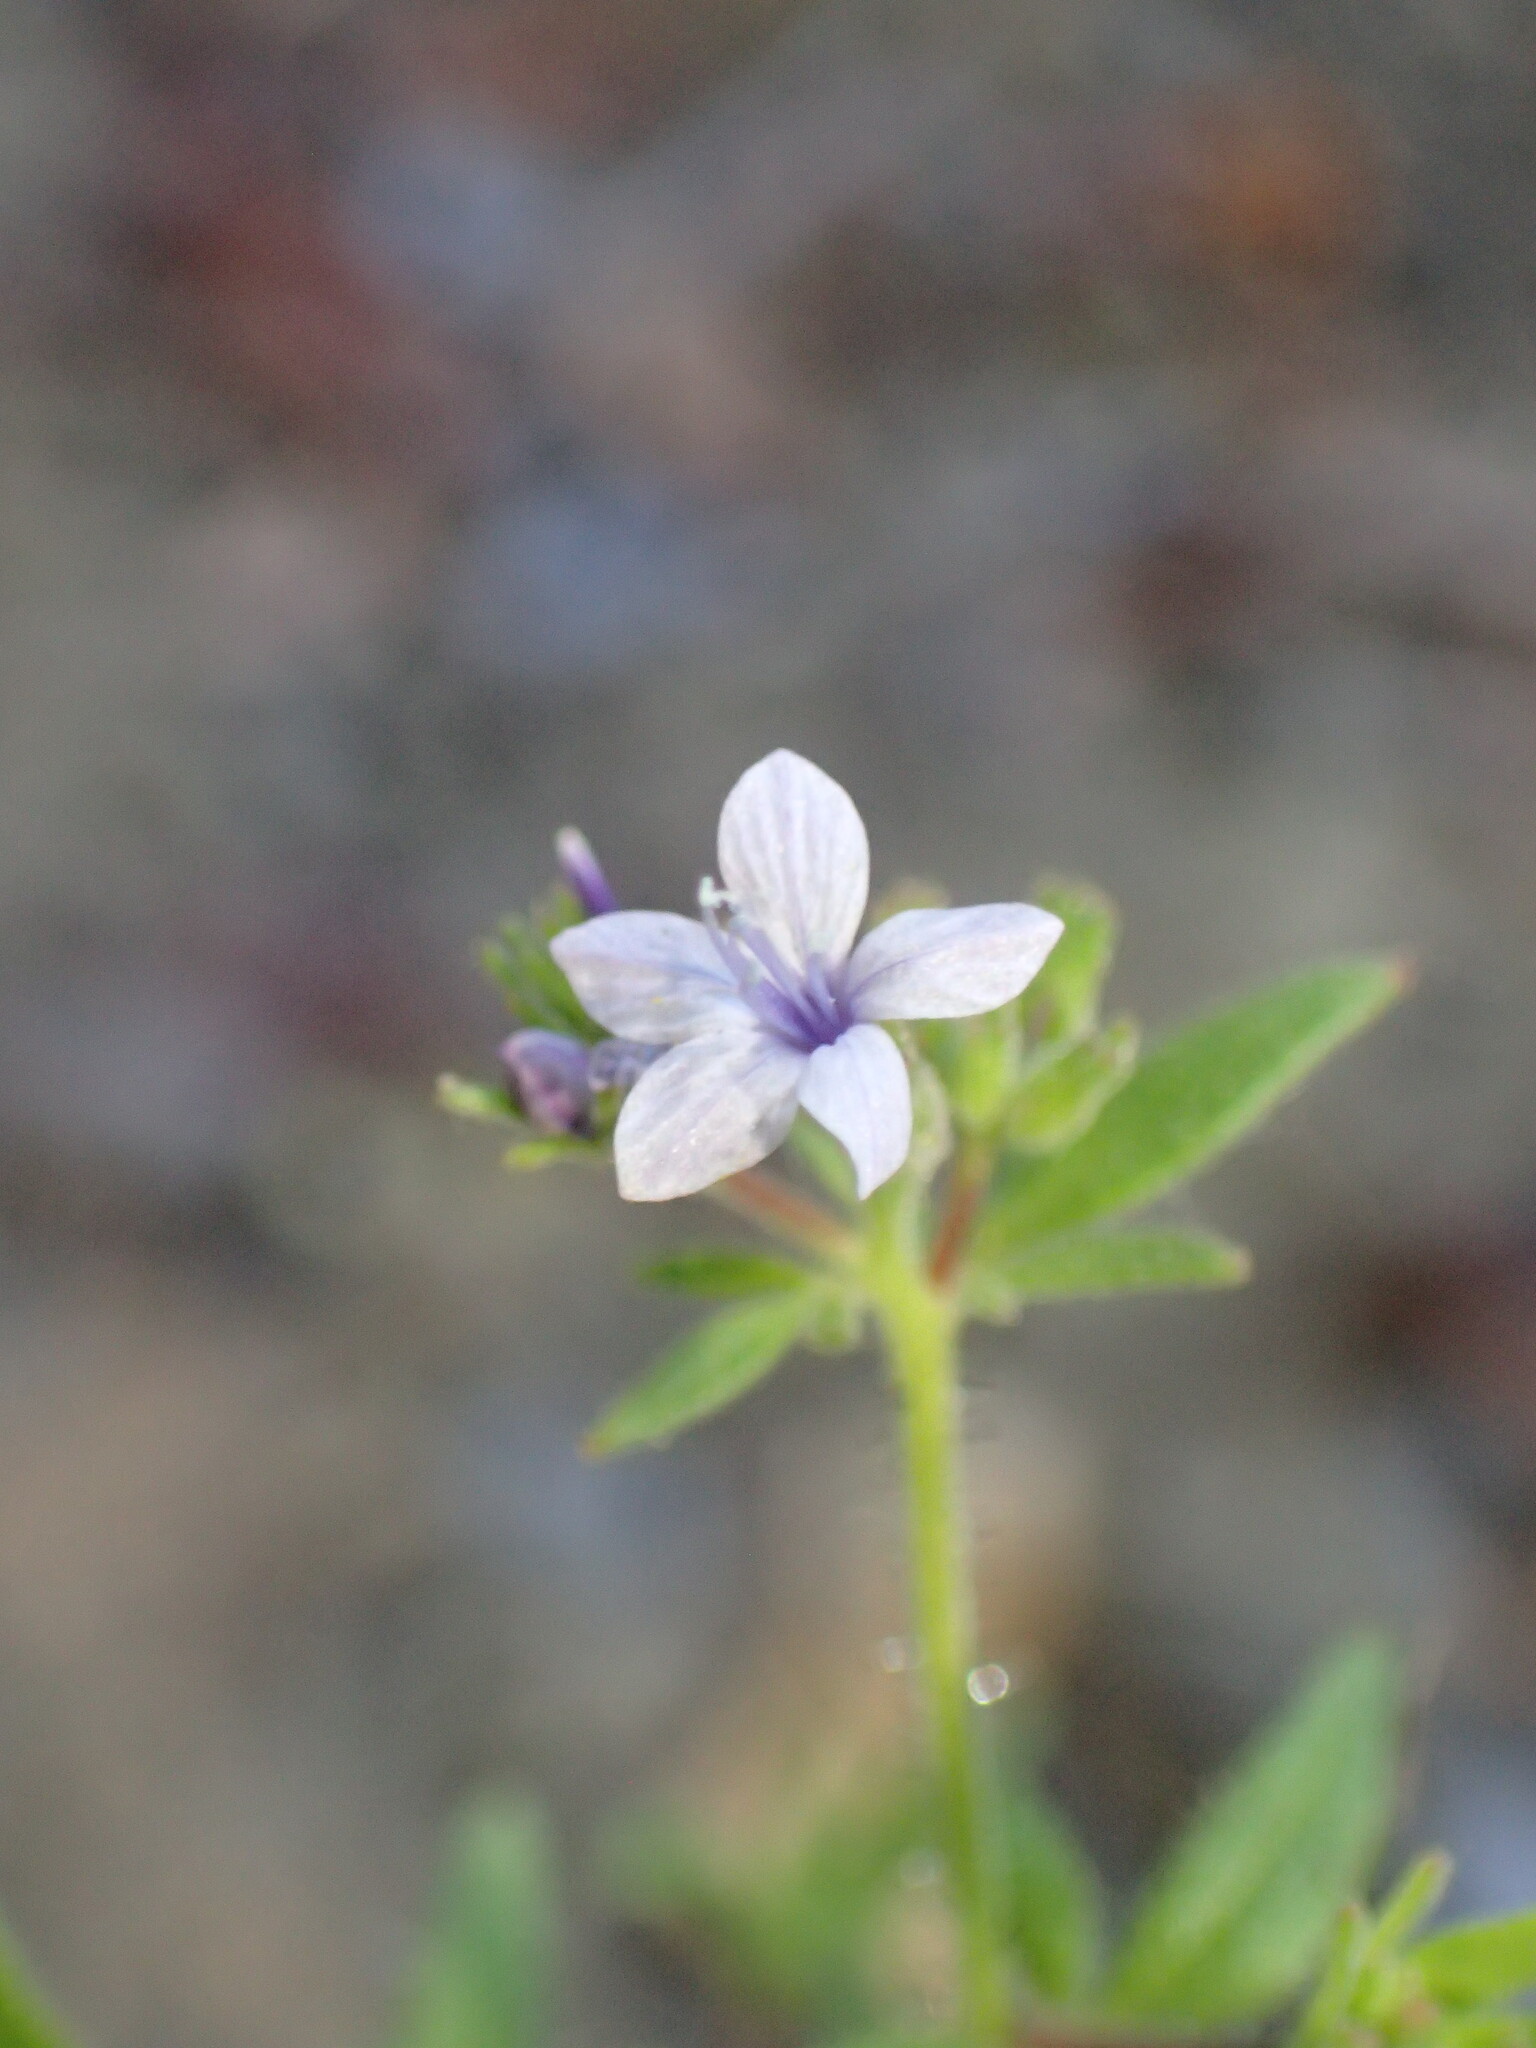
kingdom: Plantae
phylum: Tracheophyta
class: Magnoliopsida
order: Ericales
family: Polemoniaceae
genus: Allophyllum
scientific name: Allophyllum glutinosum
